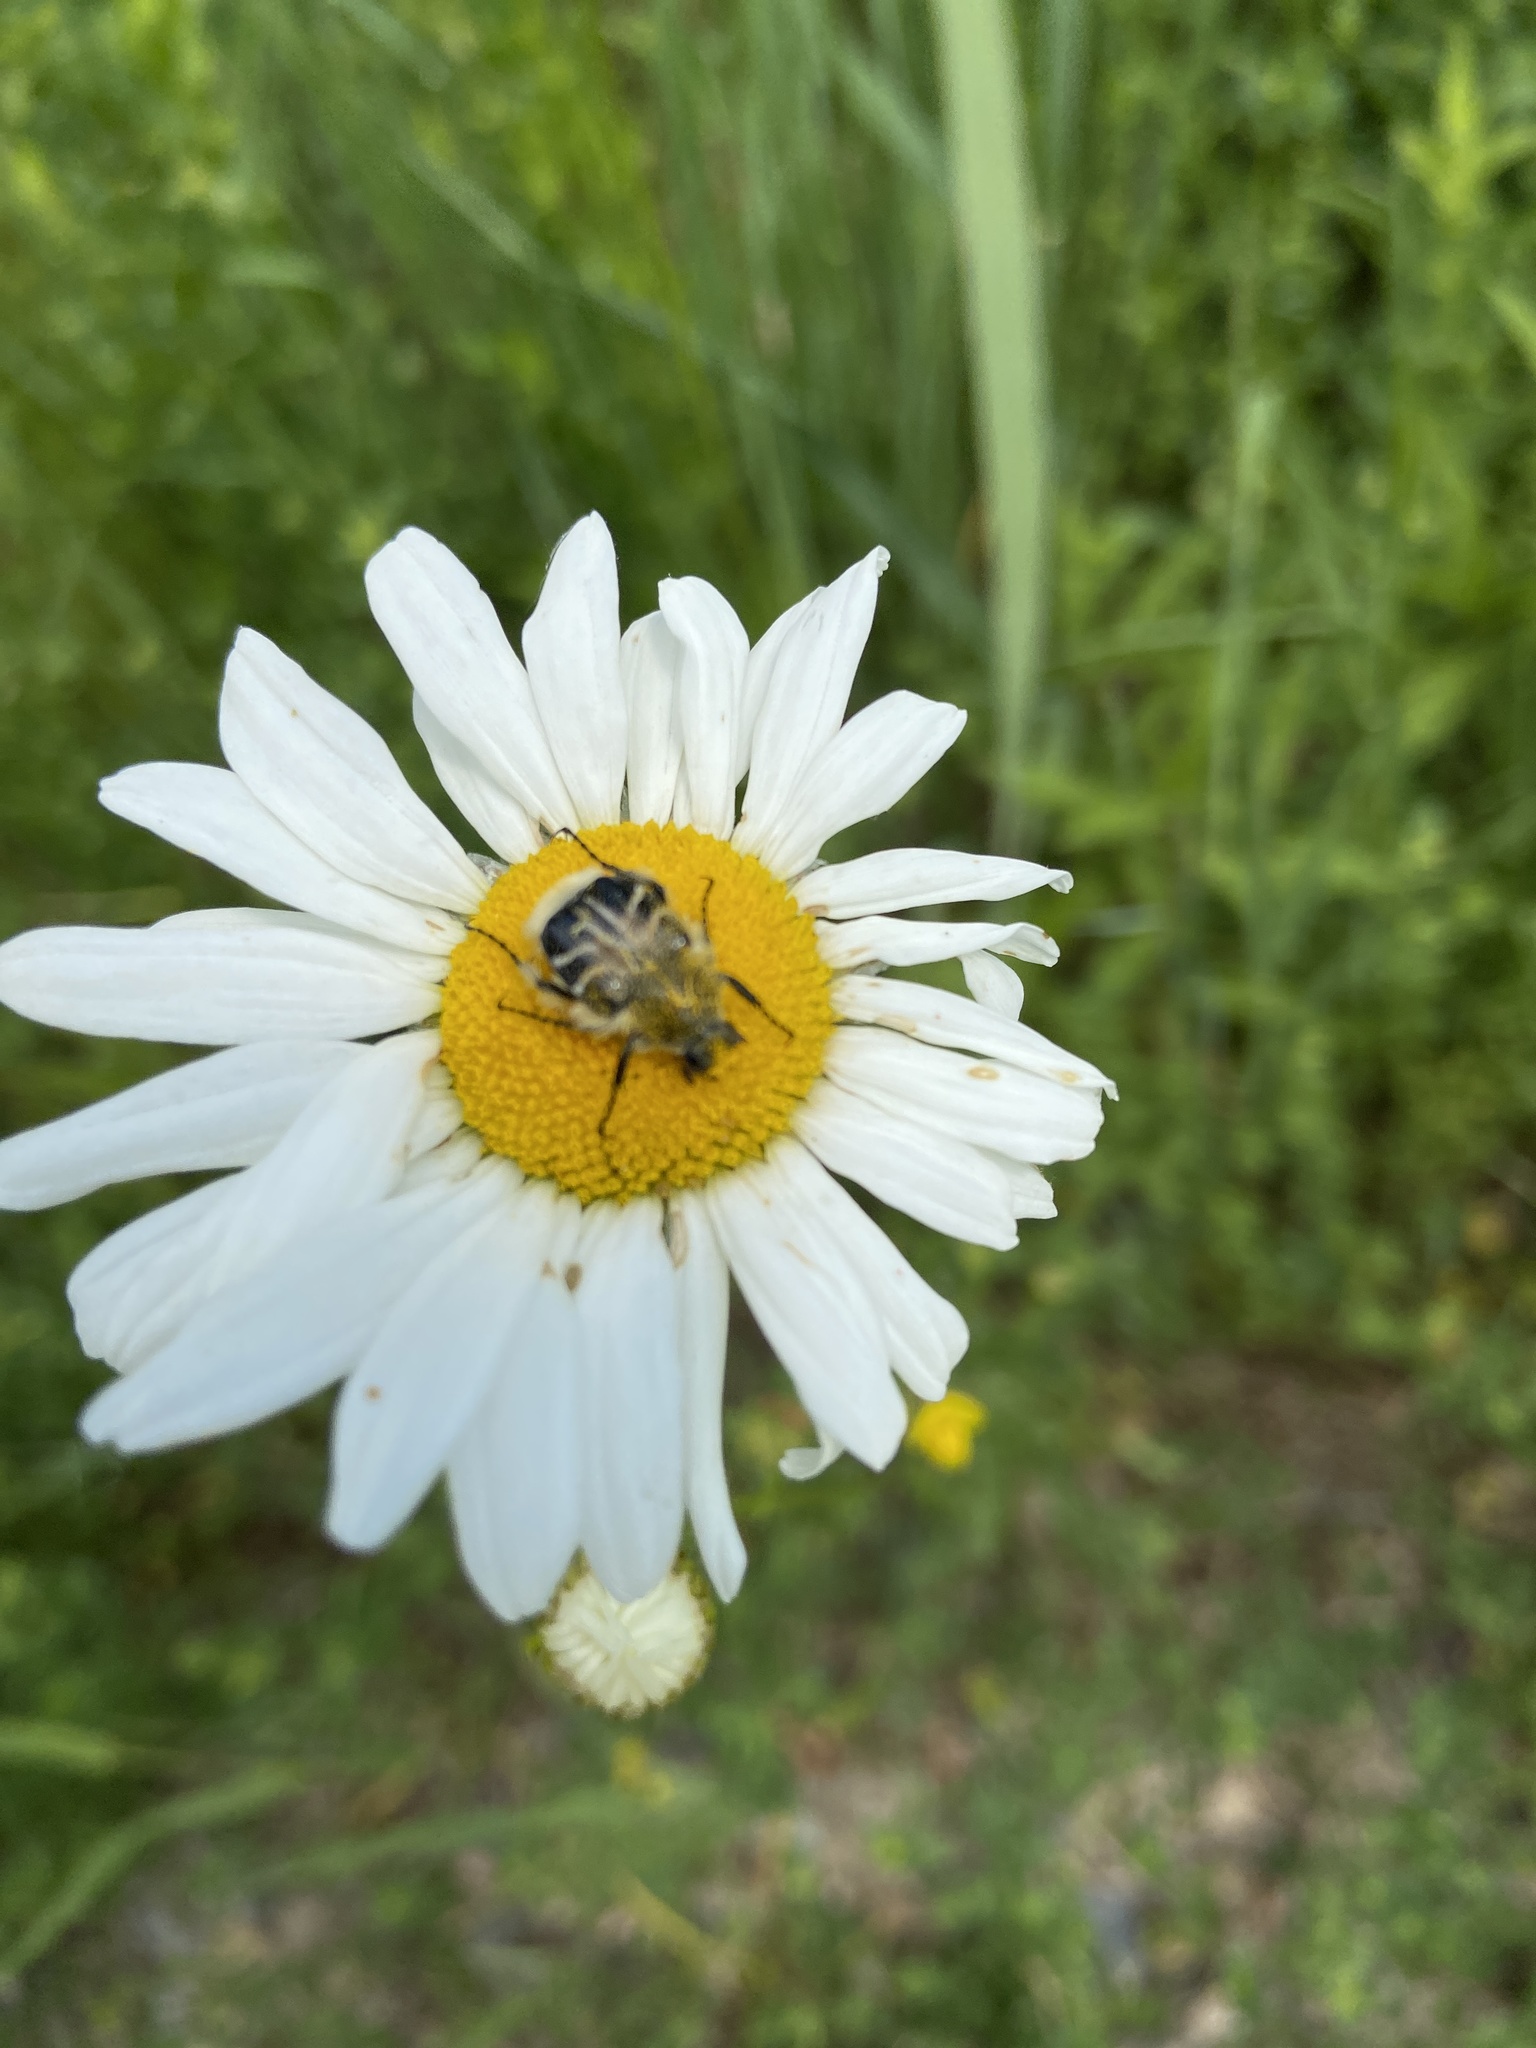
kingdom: Animalia
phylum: Arthropoda
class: Insecta
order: Coleoptera
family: Scarabaeidae
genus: Trichiotinus
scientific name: Trichiotinus assimilis
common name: Bee-mimic beetle
